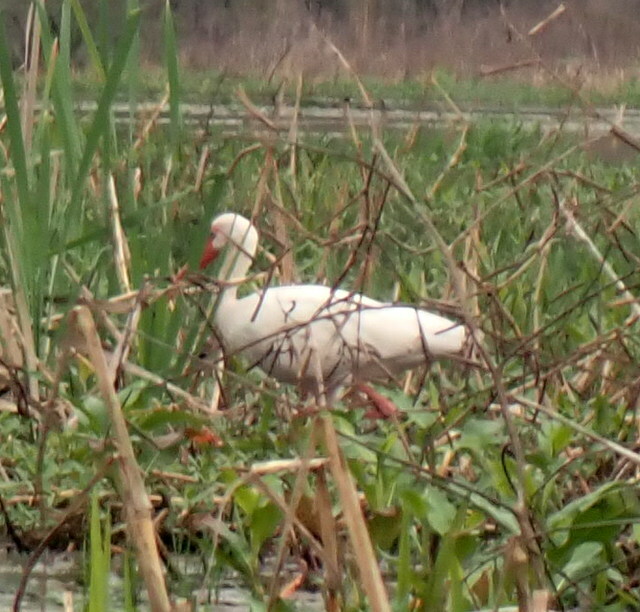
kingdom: Animalia
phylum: Chordata
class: Aves
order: Pelecaniformes
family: Threskiornithidae
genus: Eudocimus
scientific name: Eudocimus albus
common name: White ibis
